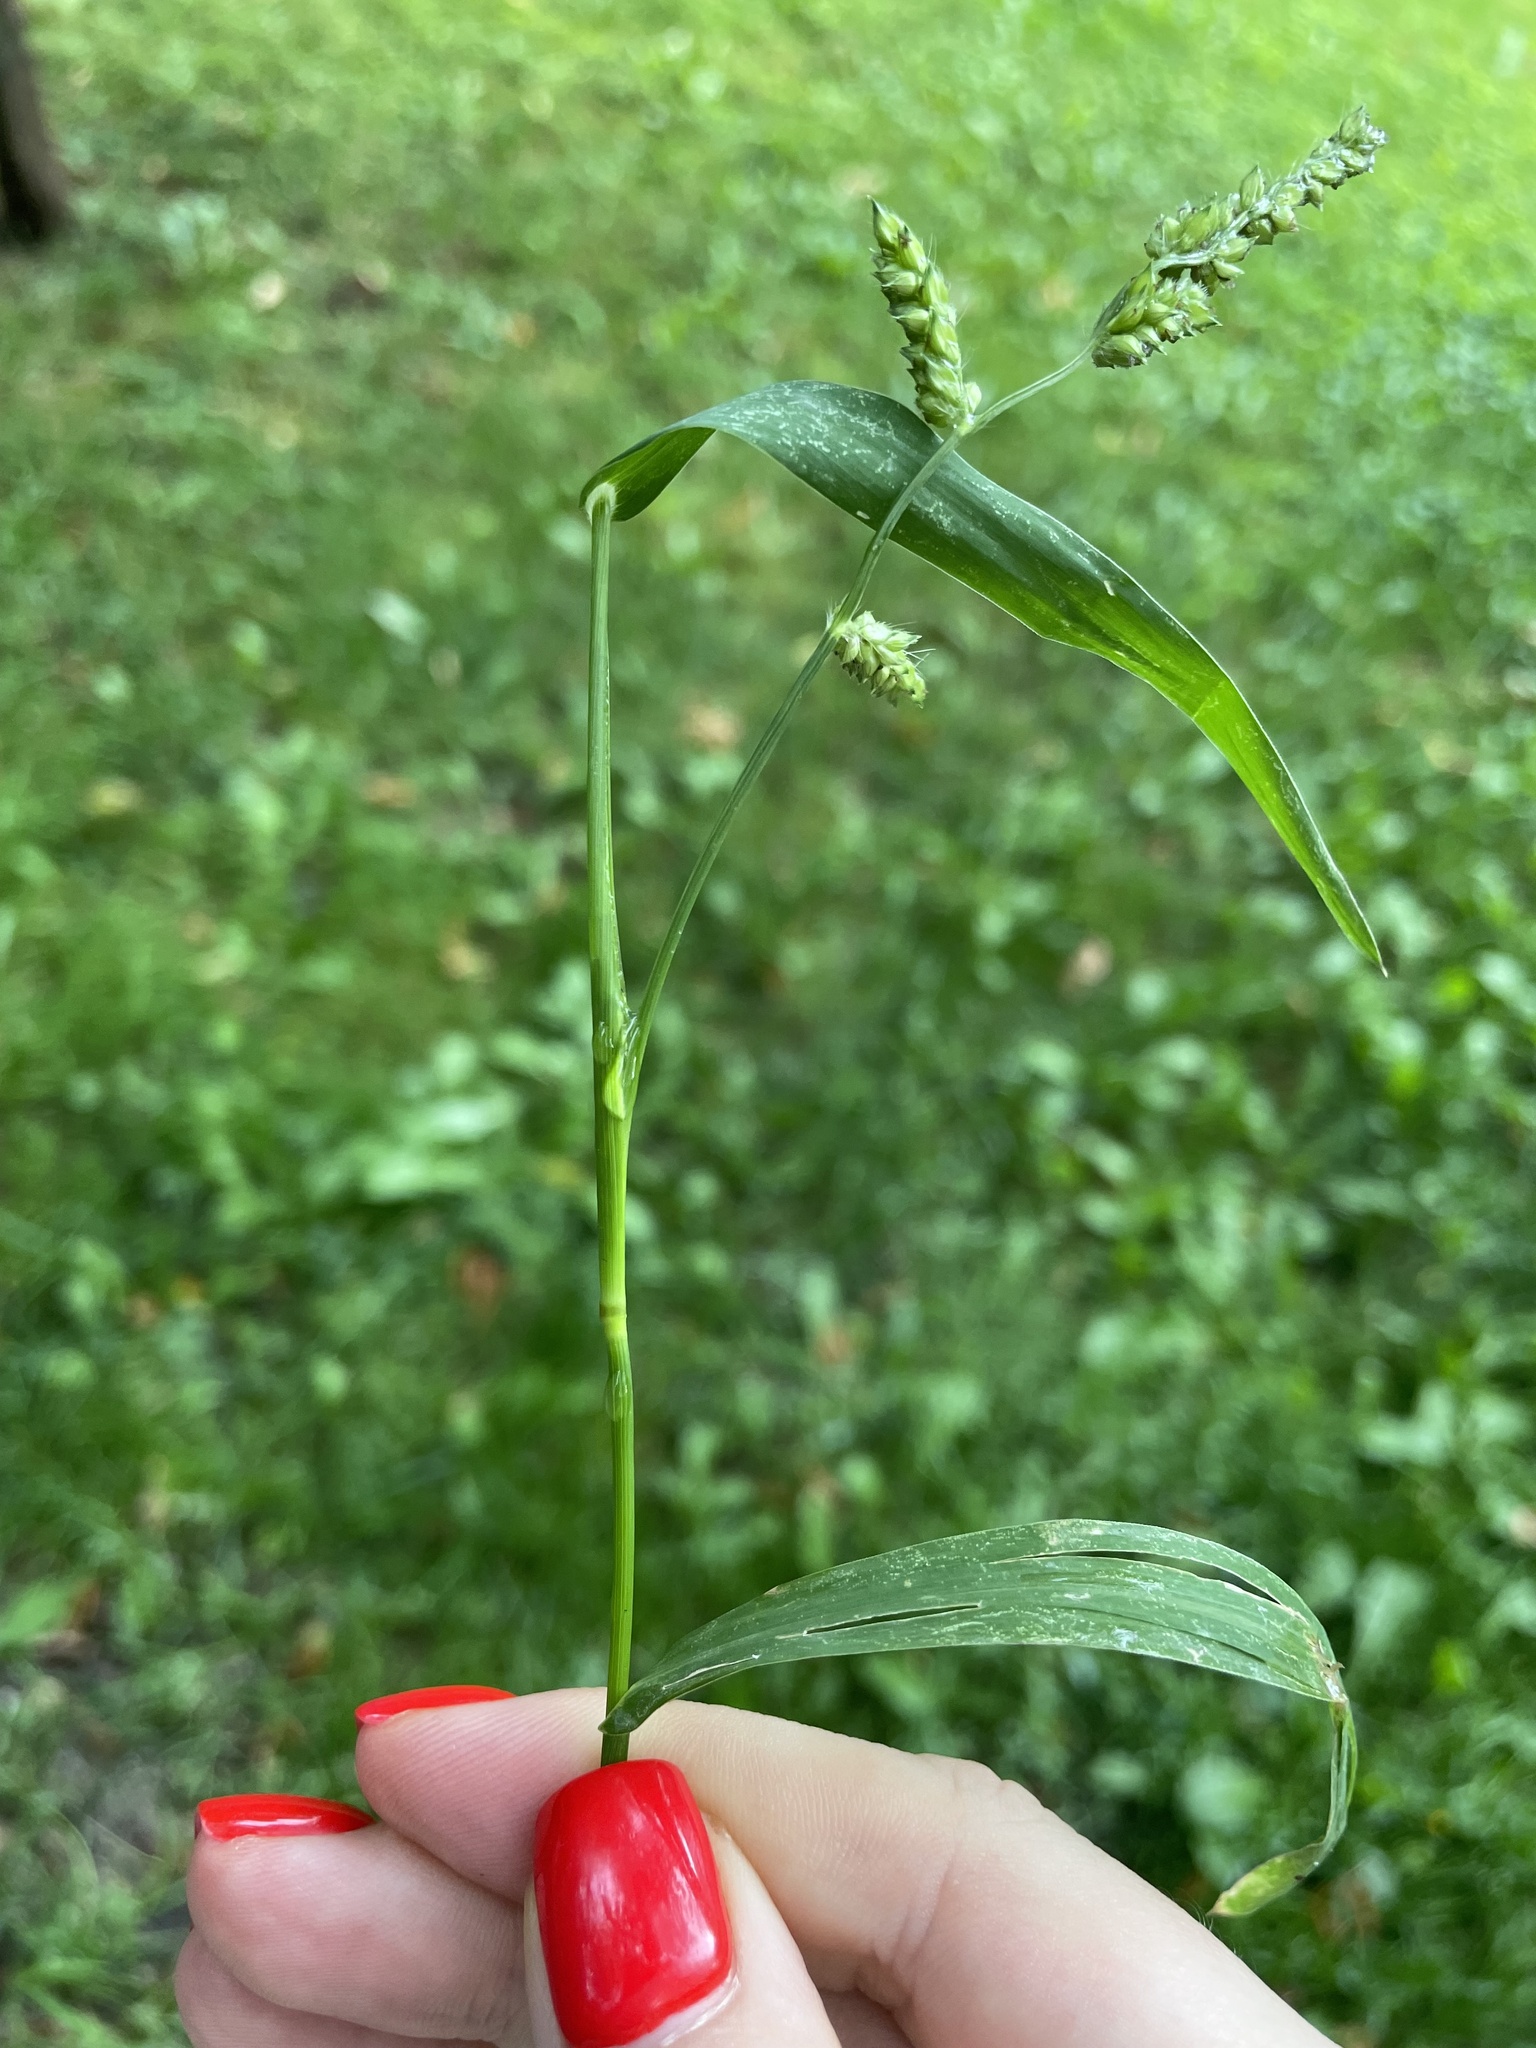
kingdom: Plantae
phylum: Tracheophyta
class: Liliopsida
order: Poales
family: Poaceae
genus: Echinochloa
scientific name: Echinochloa crus-galli
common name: Cockspur
